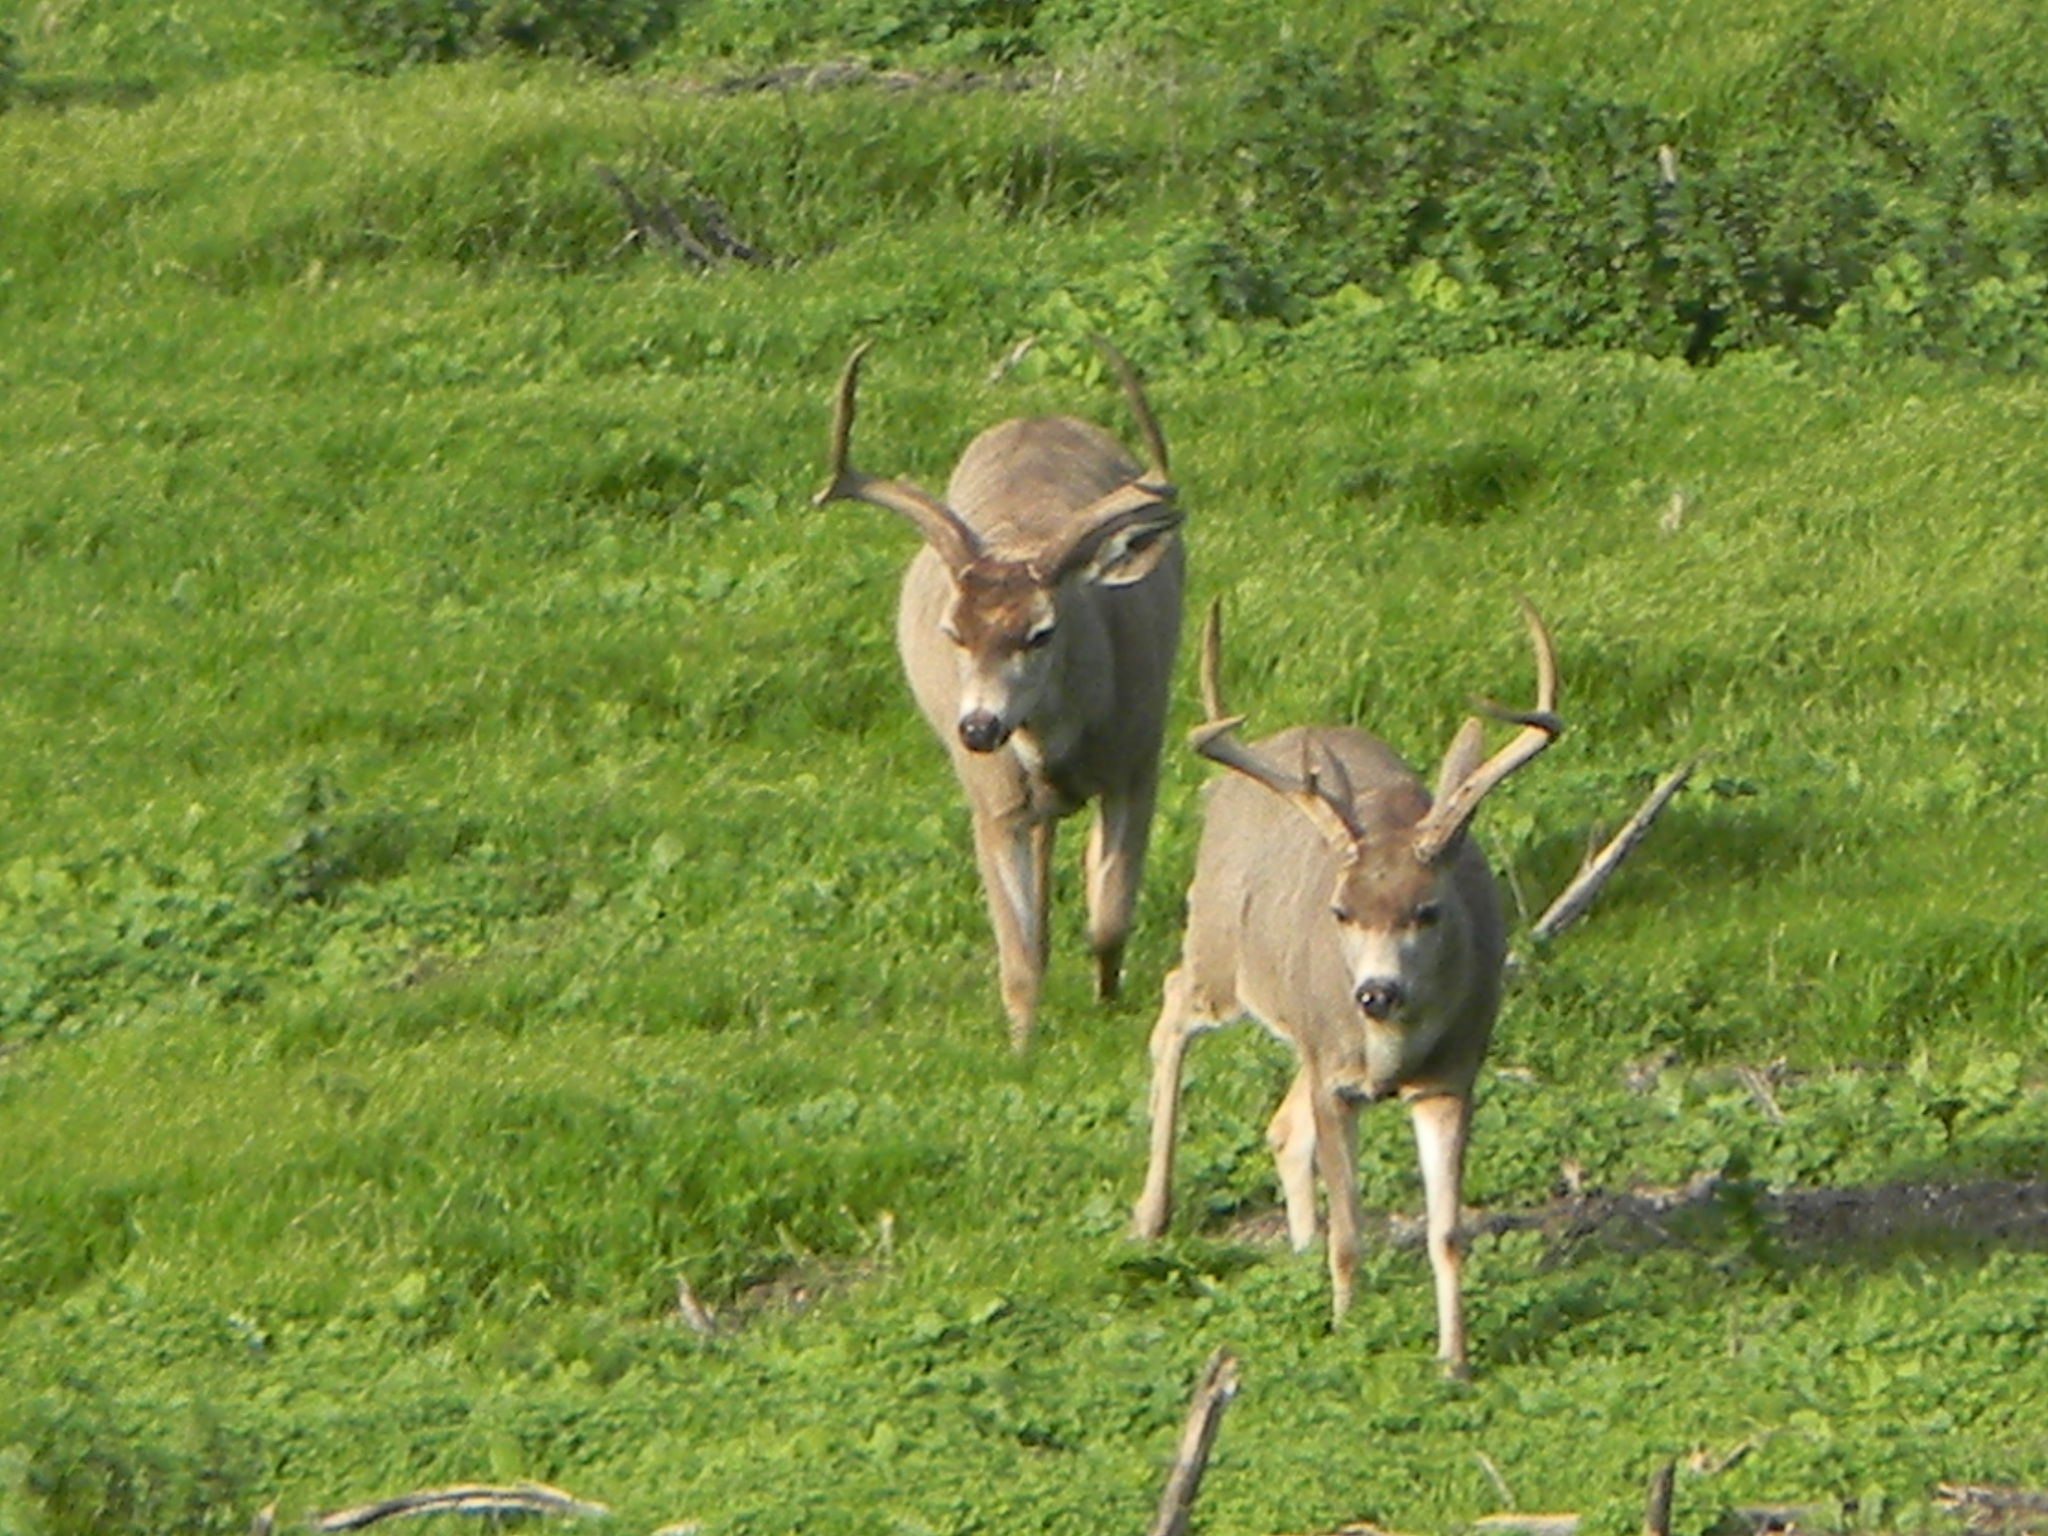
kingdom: Animalia
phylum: Chordata
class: Mammalia
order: Artiodactyla
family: Cervidae
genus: Odocoileus
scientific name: Odocoileus hemionus
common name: Mule deer
